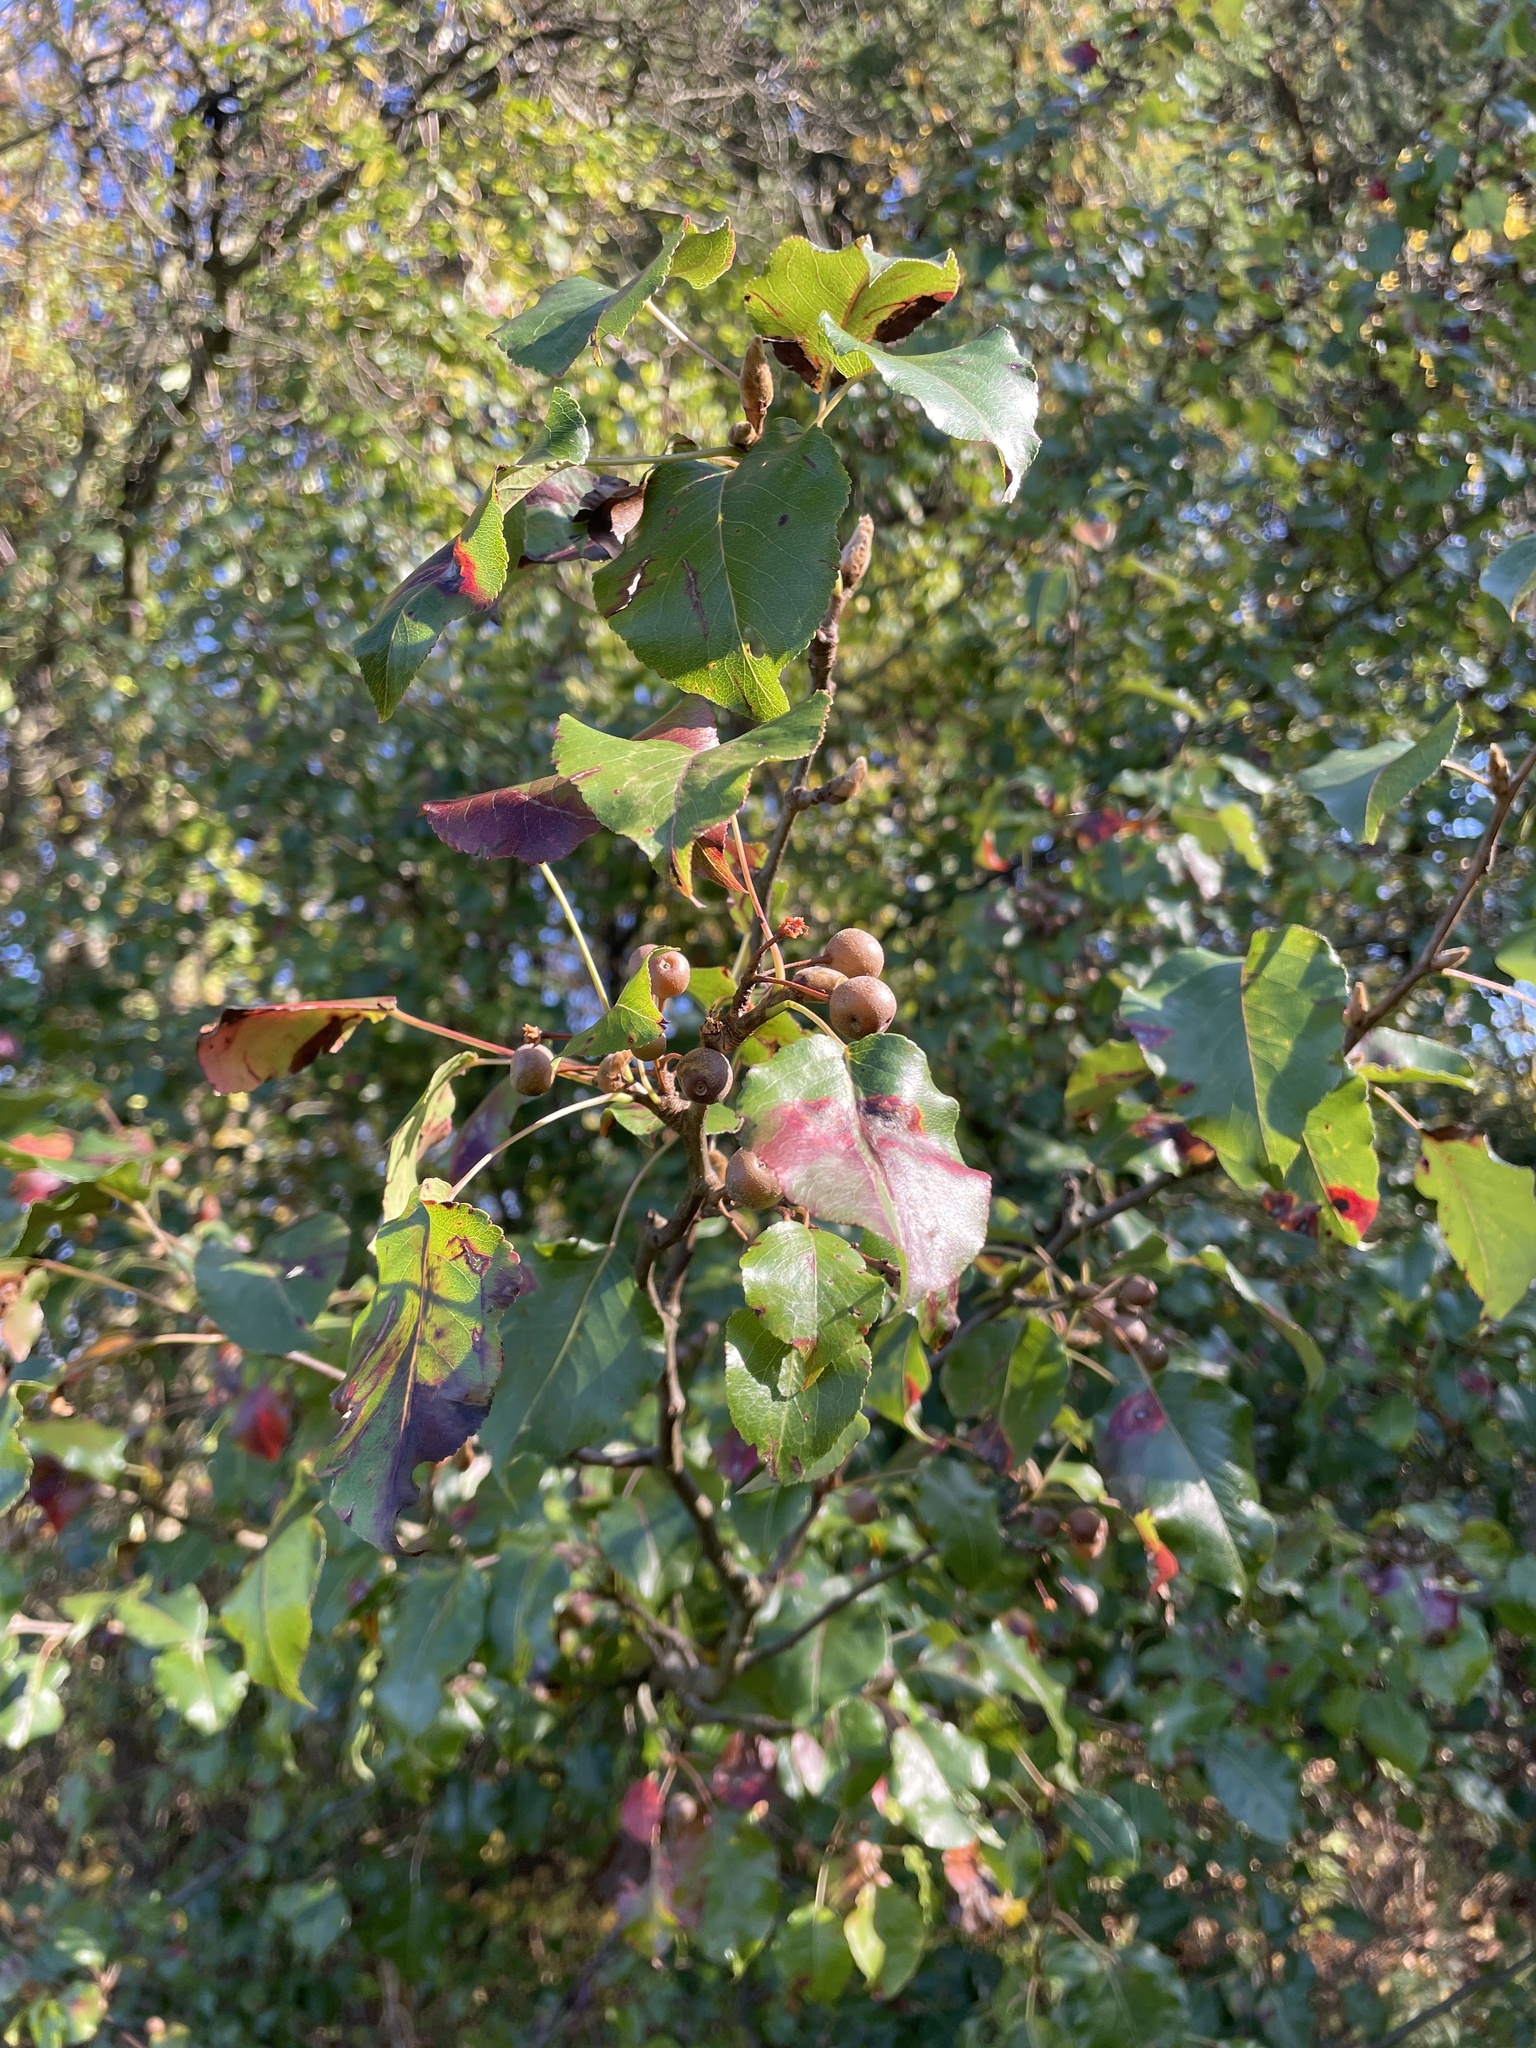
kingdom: Plantae
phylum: Tracheophyta
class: Magnoliopsida
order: Rosales
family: Rosaceae
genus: Pyrus
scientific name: Pyrus calleryana
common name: Callery pear
